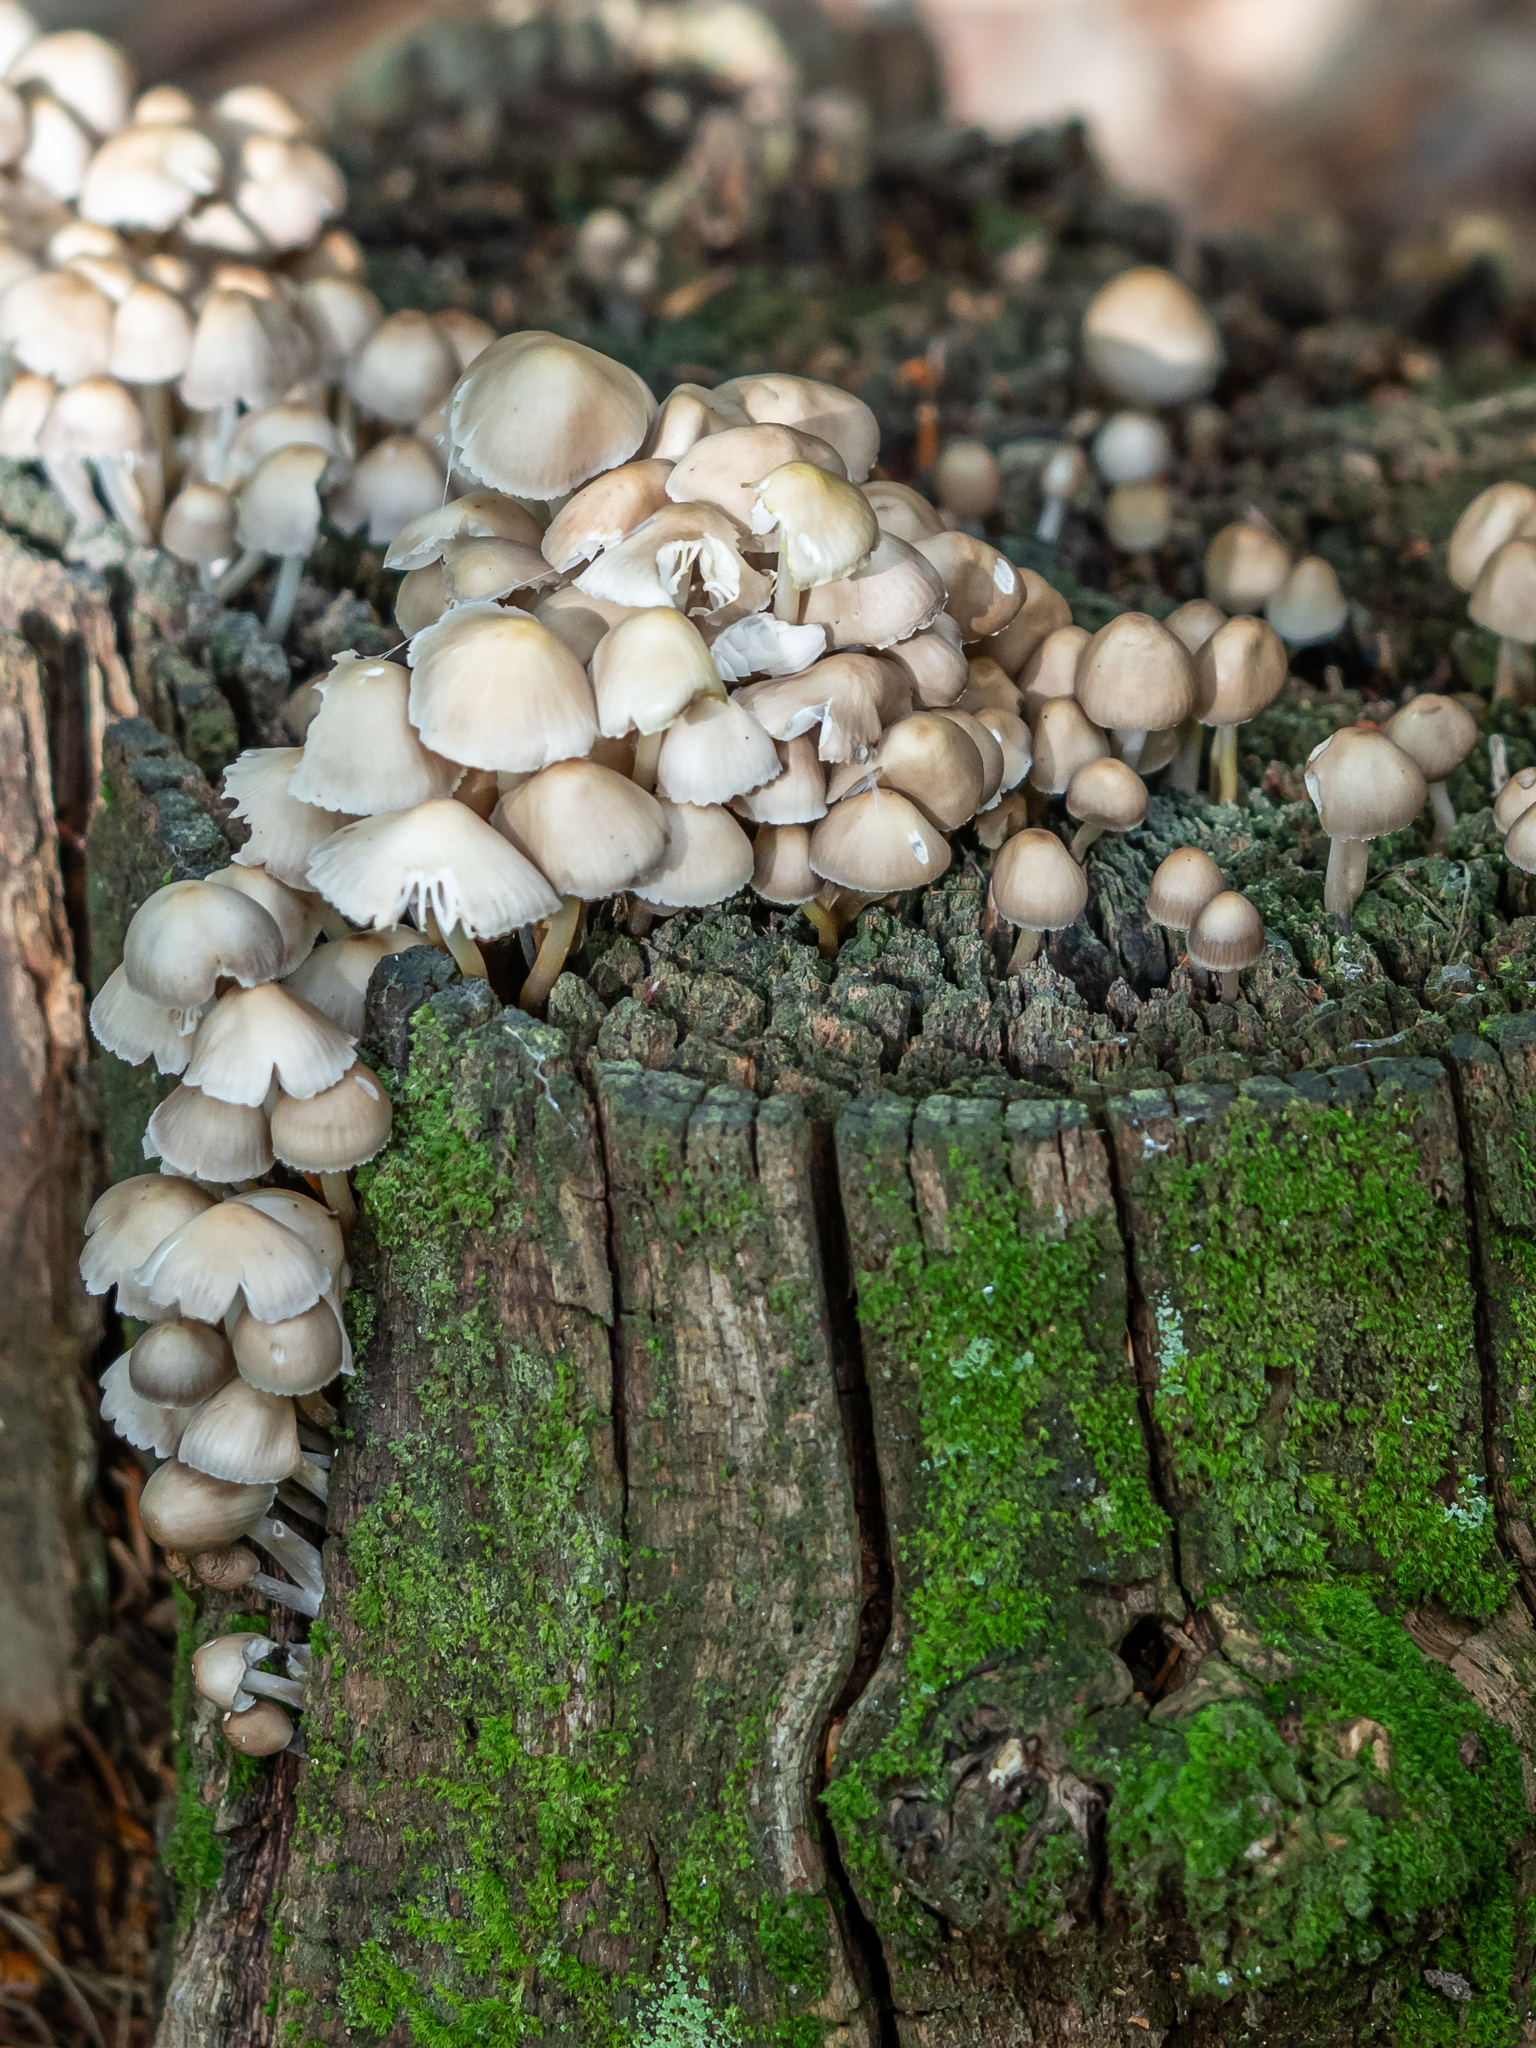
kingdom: Fungi
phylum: Basidiomycota
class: Agaricomycetes
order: Agaricales
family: Mycenaceae
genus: Mycena
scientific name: Mycena inclinata
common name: Clustered bonnet
